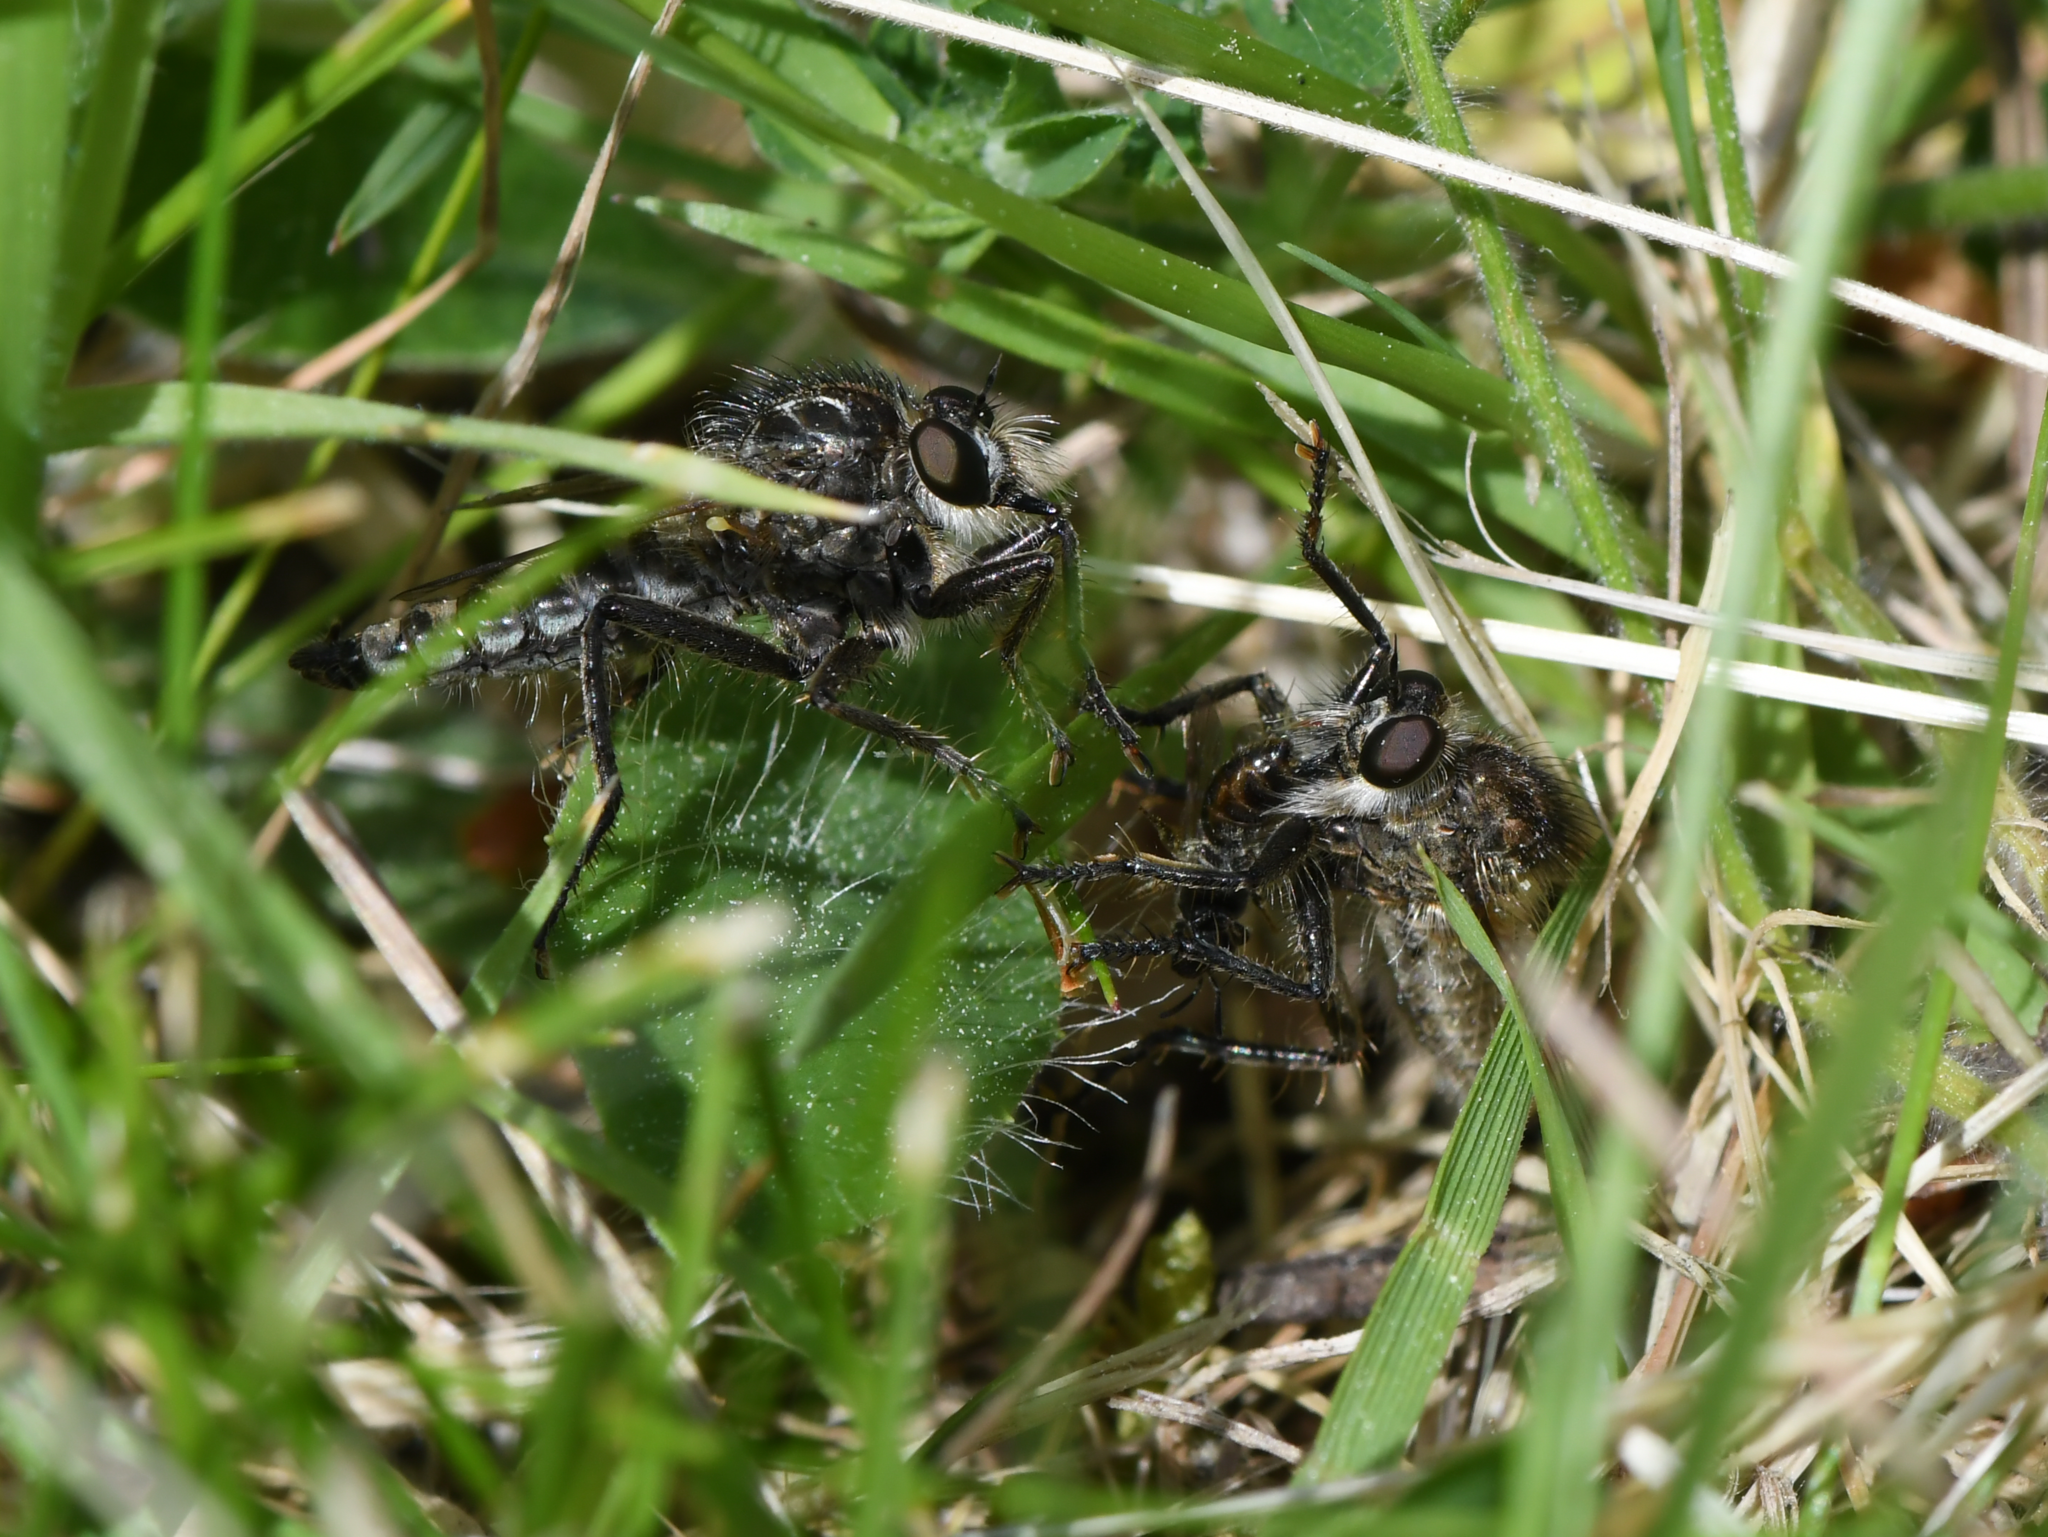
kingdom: Animalia
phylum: Arthropoda
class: Insecta
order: Diptera
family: Asilidae
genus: Dysmachus
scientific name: Dysmachus trigonus
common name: Fan-bristled robberfly
